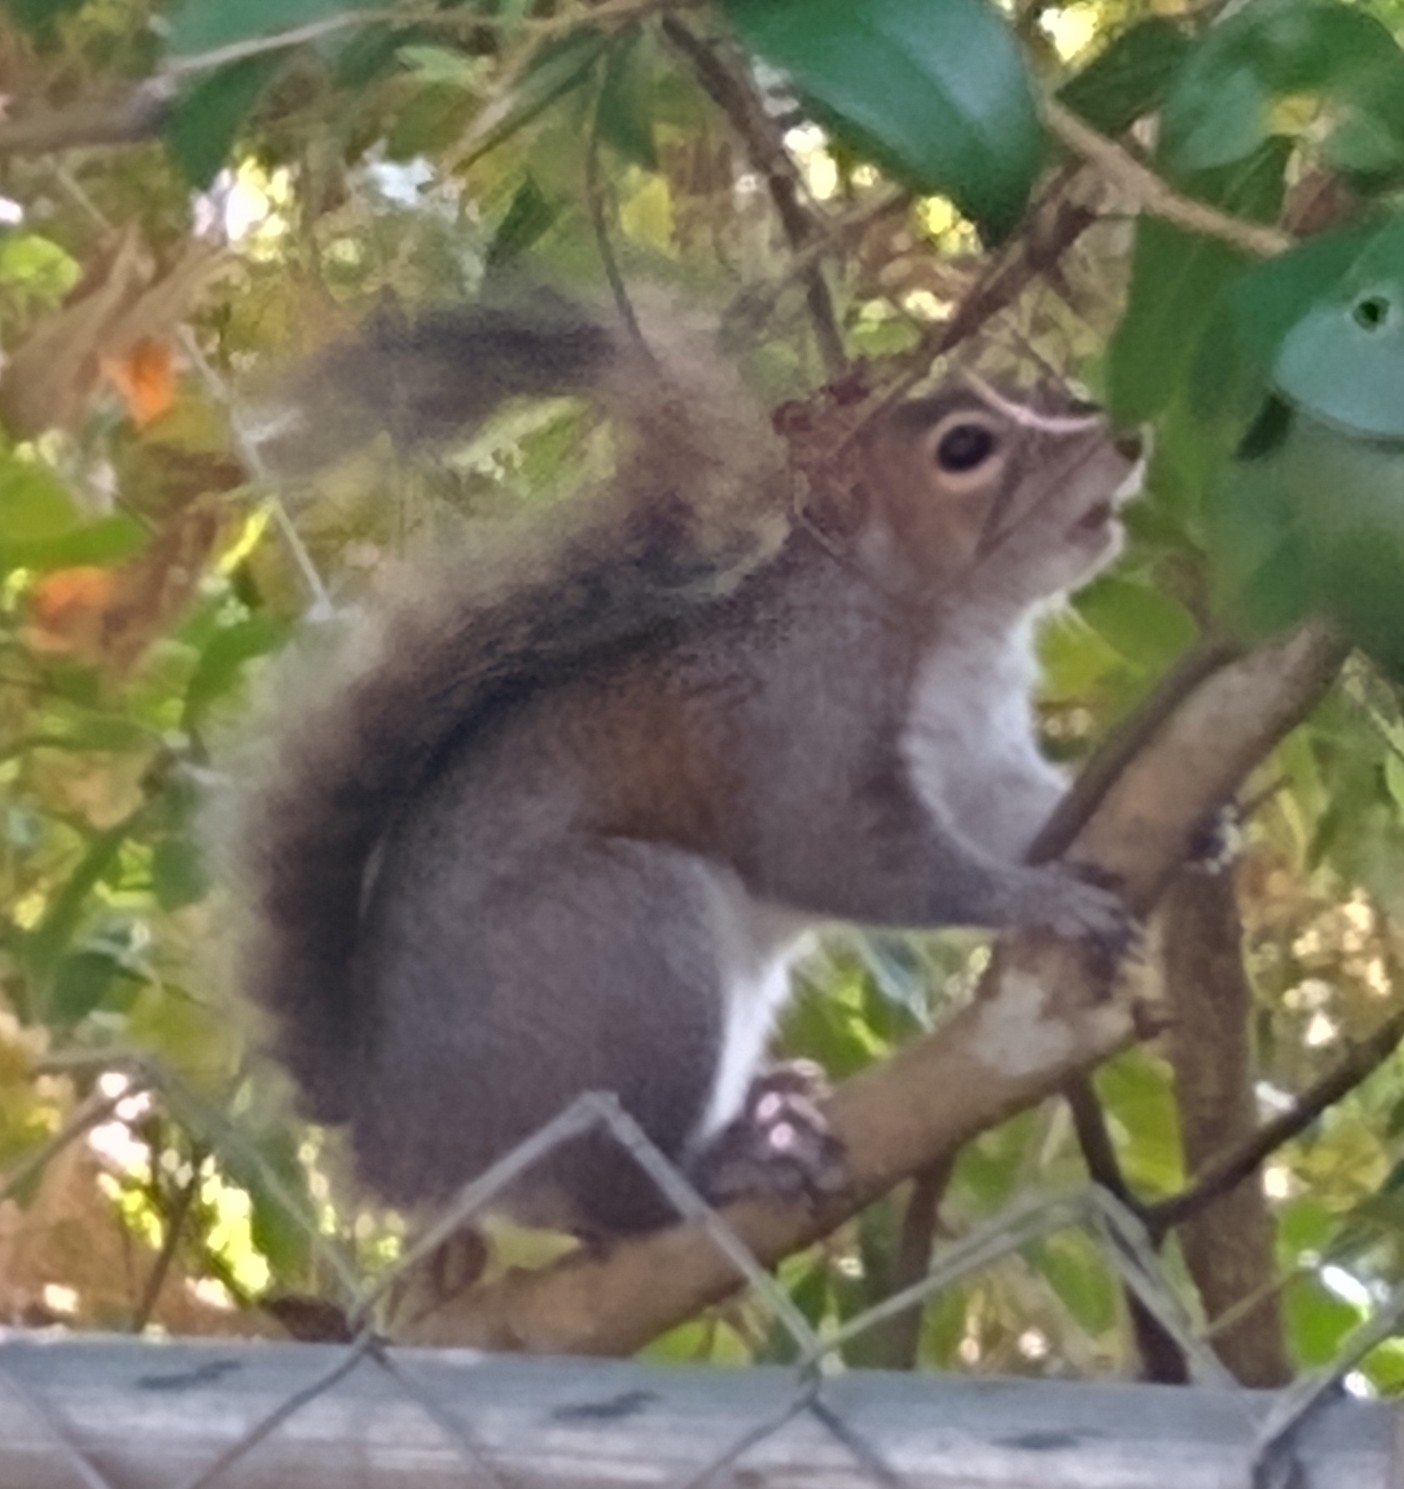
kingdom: Animalia
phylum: Chordata
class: Mammalia
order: Rodentia
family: Sciuridae
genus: Sciurus
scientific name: Sciurus carolinensis
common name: Eastern gray squirrel
